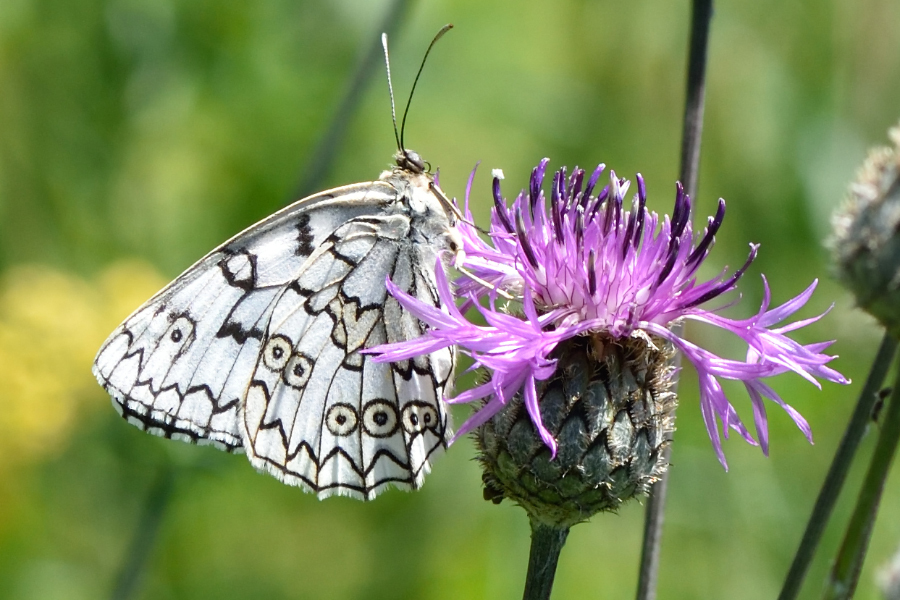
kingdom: Animalia
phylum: Arthropoda
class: Insecta
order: Lepidoptera
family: Nymphalidae
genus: Melanargia
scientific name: Melanargia japygia
